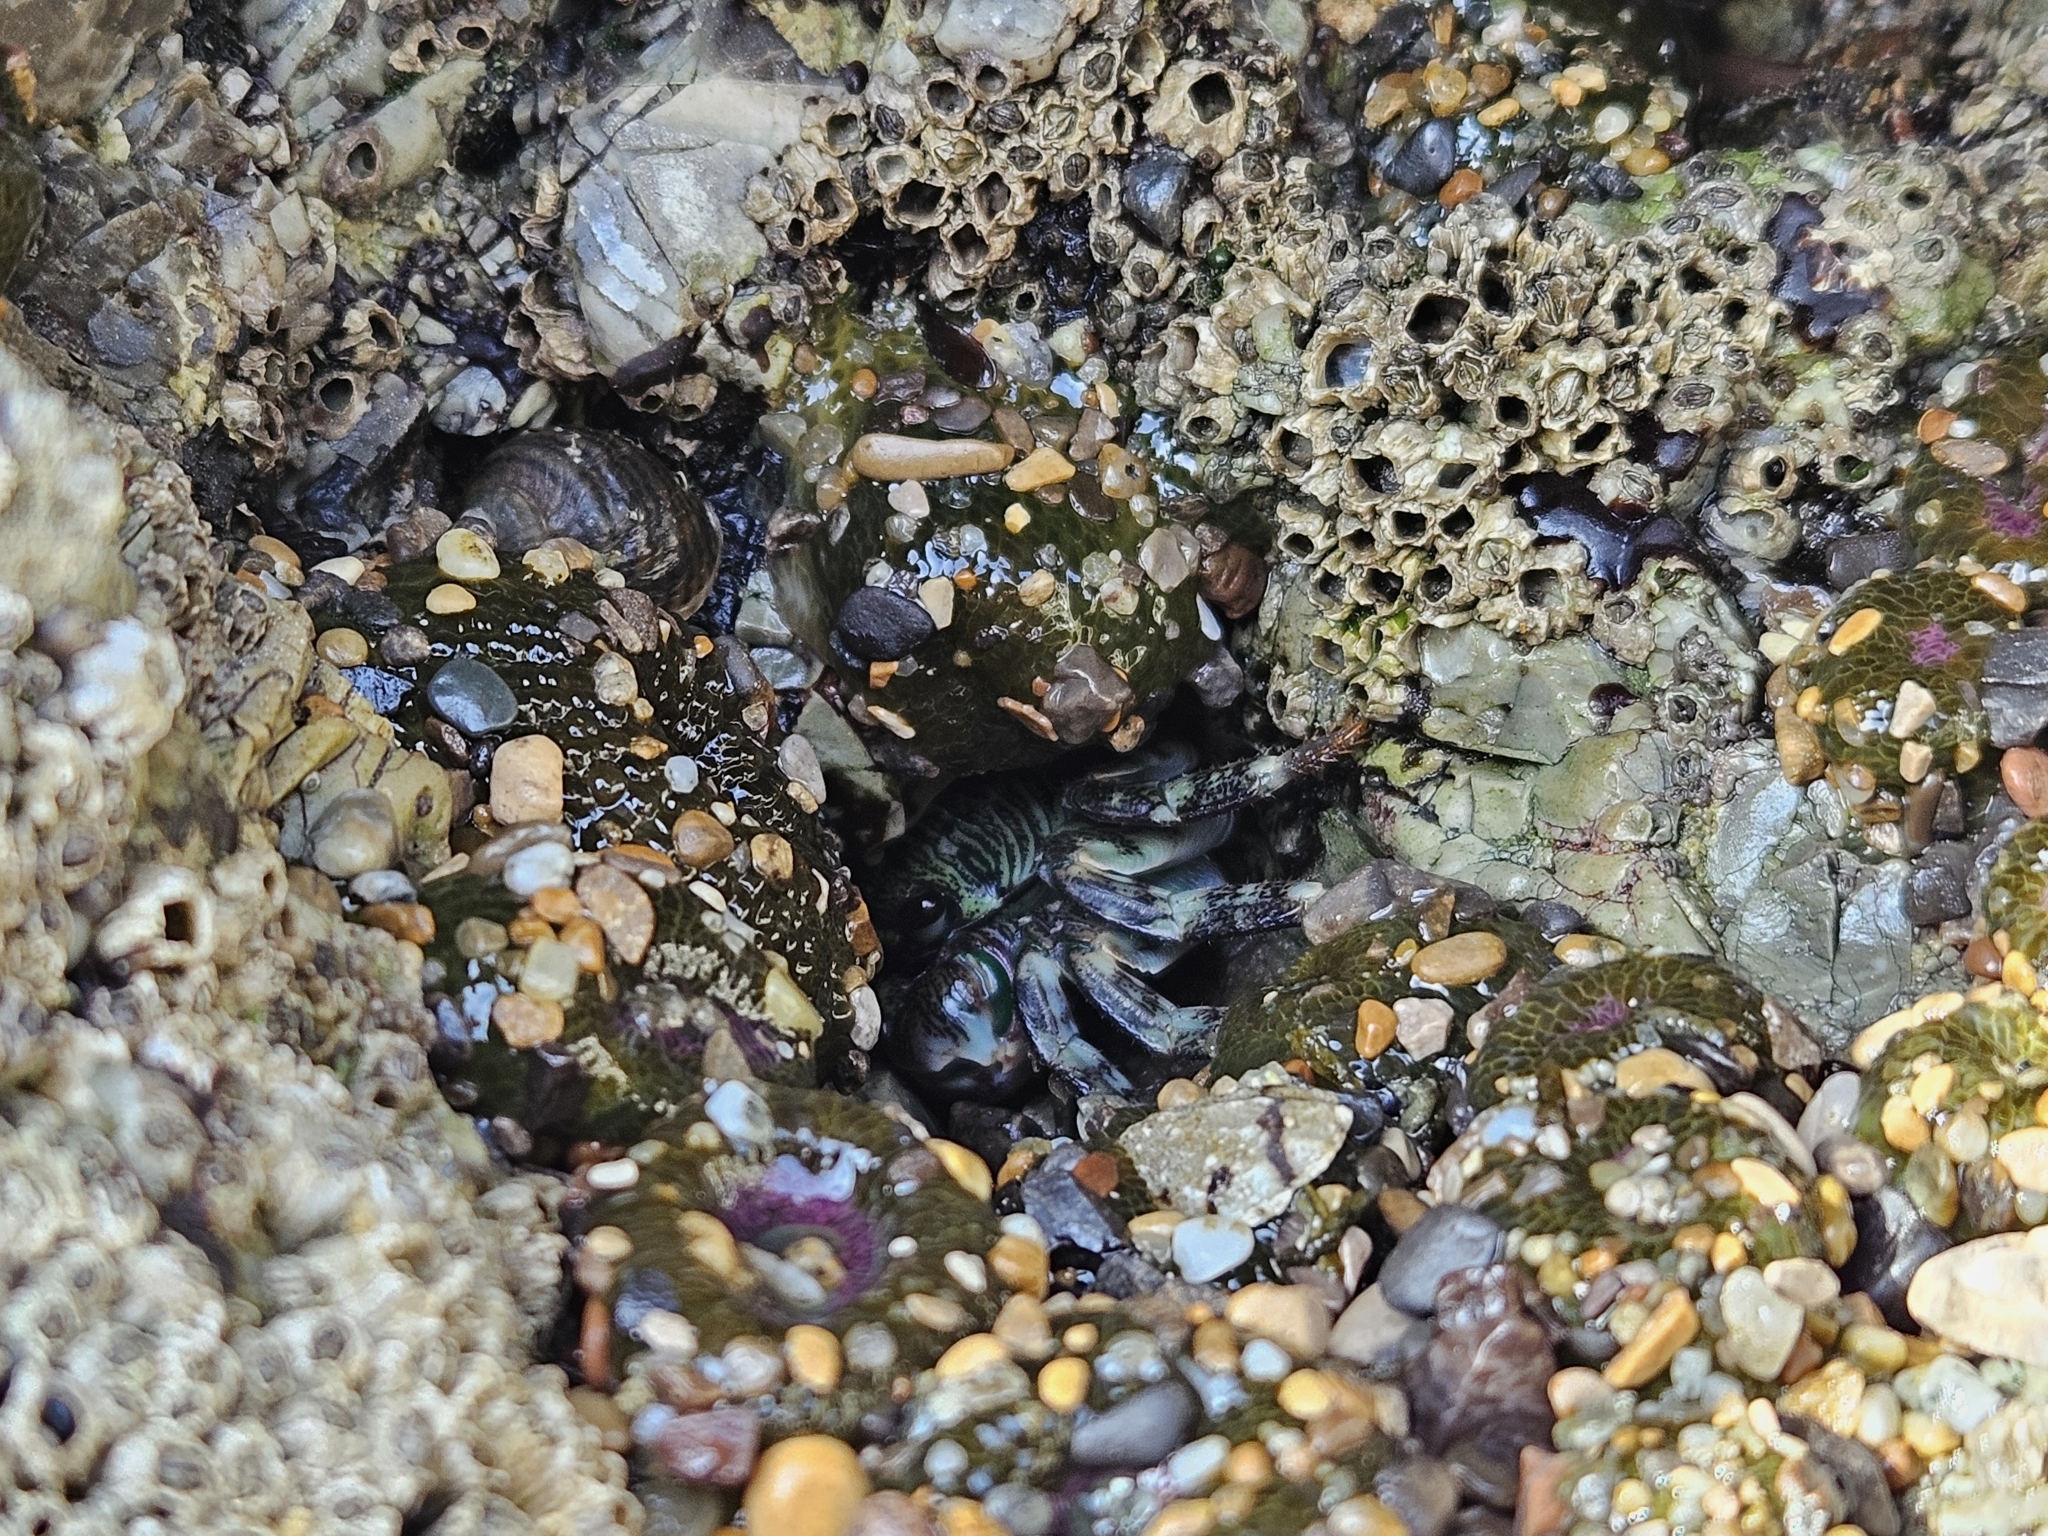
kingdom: Animalia
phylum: Arthropoda
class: Malacostraca
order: Decapoda
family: Grapsidae
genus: Pachygrapsus
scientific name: Pachygrapsus crassipes
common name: Striped shore crab
